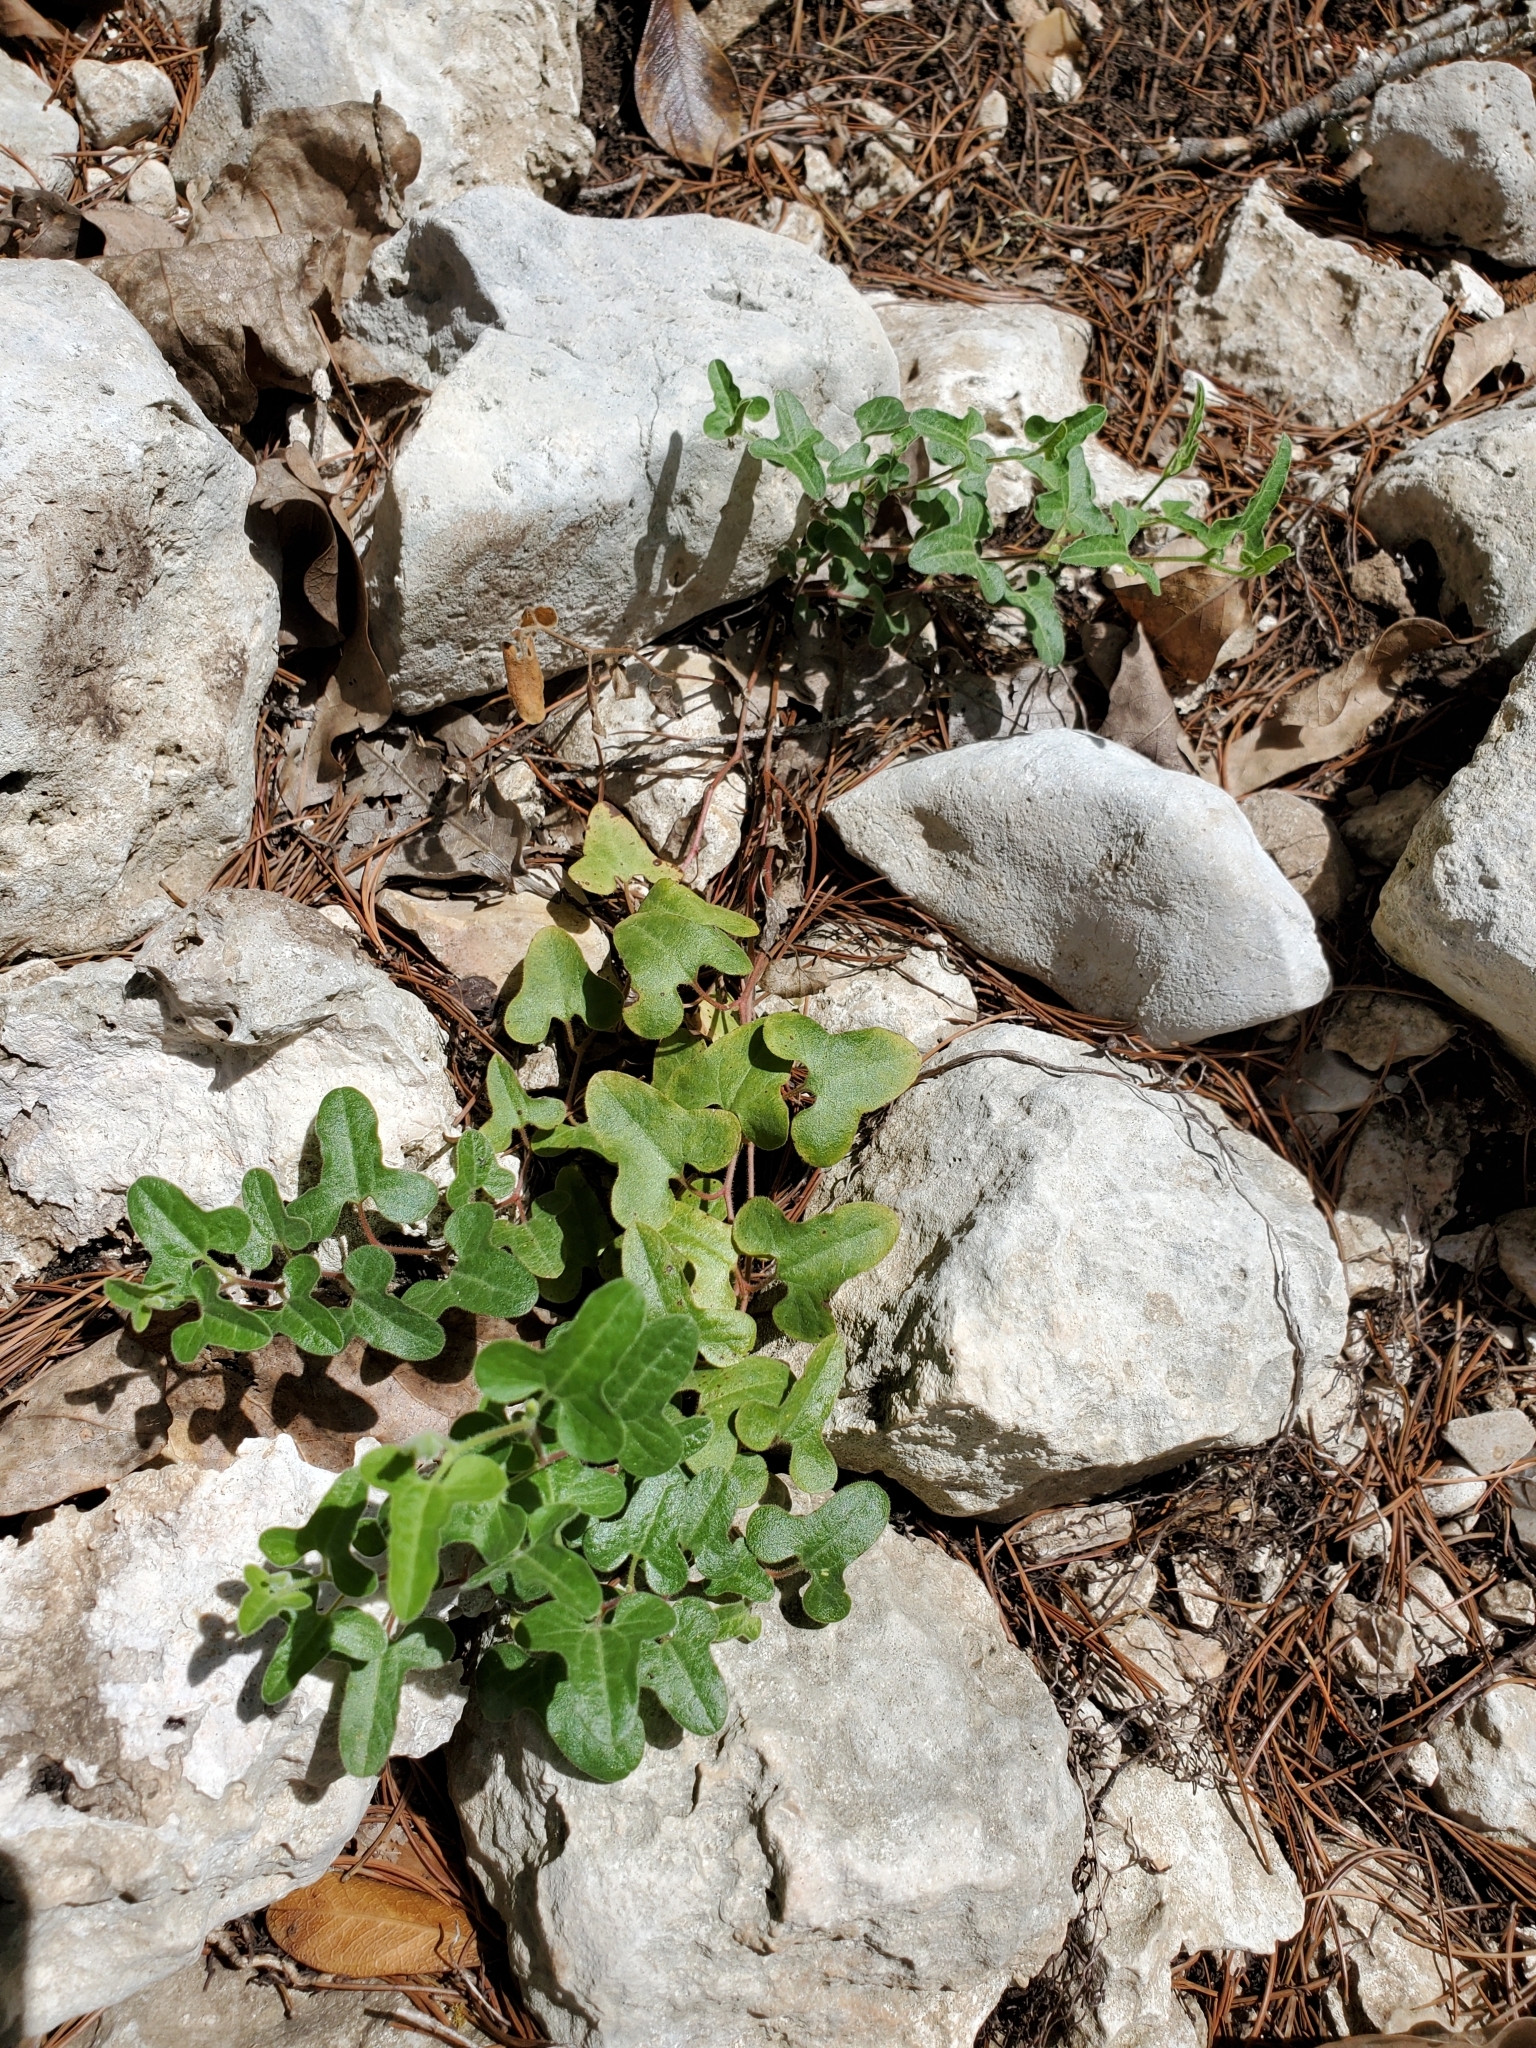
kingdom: Plantae
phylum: Tracheophyta
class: Magnoliopsida
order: Piperales
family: Aristolochiaceae
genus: Aristolochia
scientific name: Aristolochia coryi
